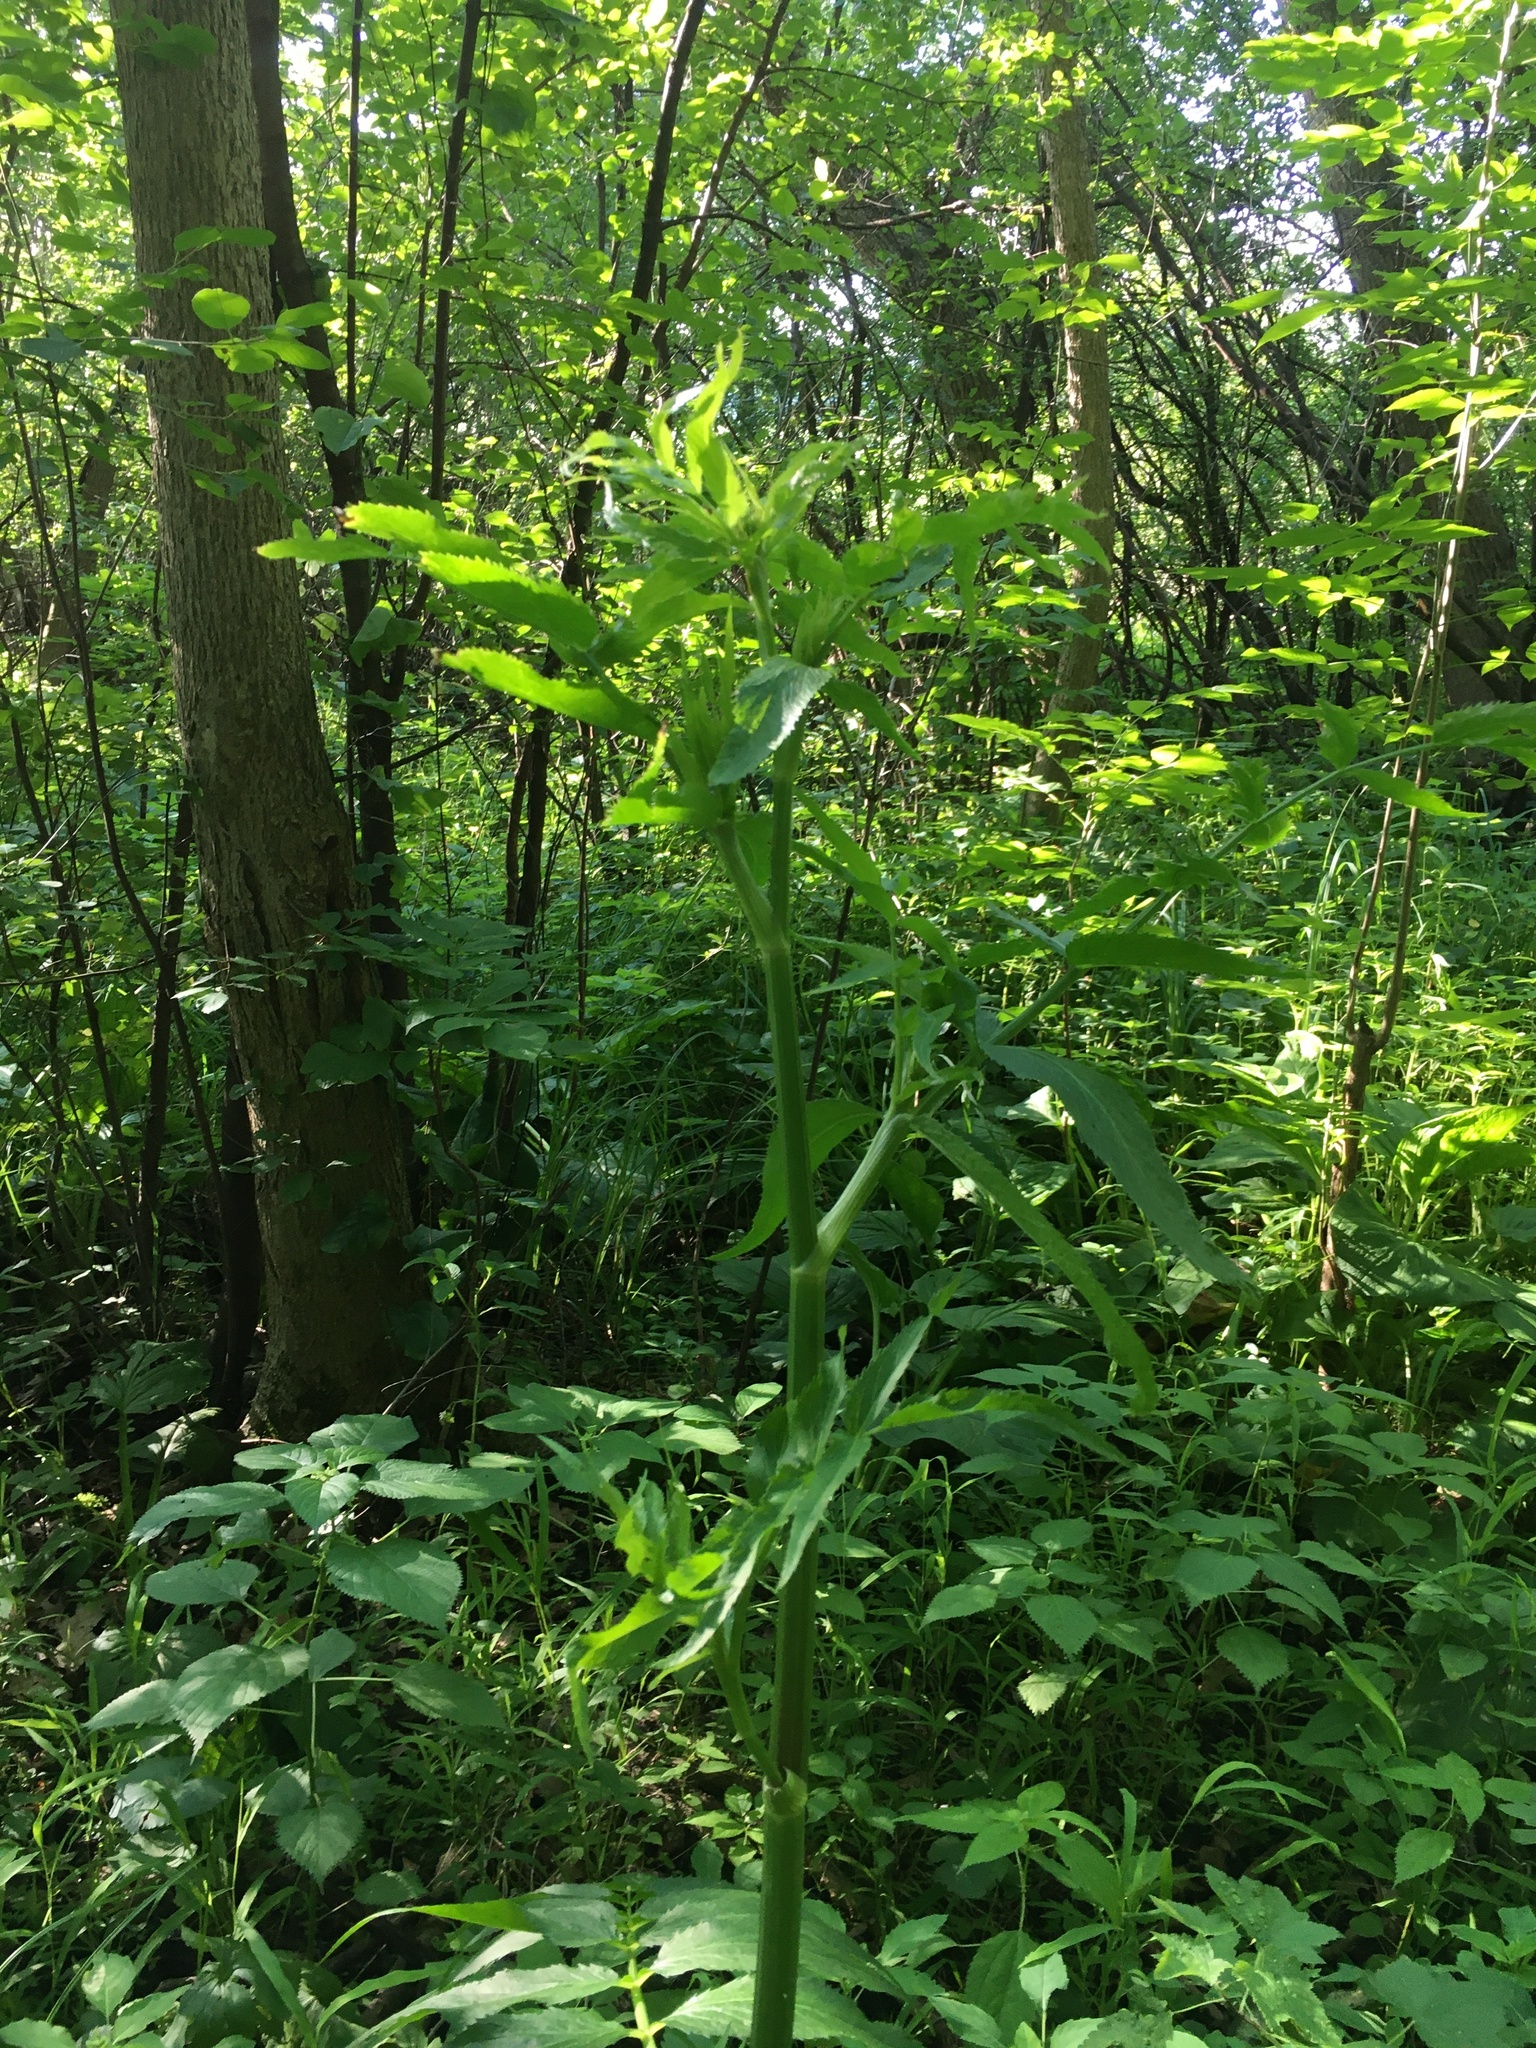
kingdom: Plantae
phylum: Tracheophyta
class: Magnoliopsida
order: Apiales
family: Apiaceae
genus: Sium
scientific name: Sium suave
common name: Hemlock water-parsnip
